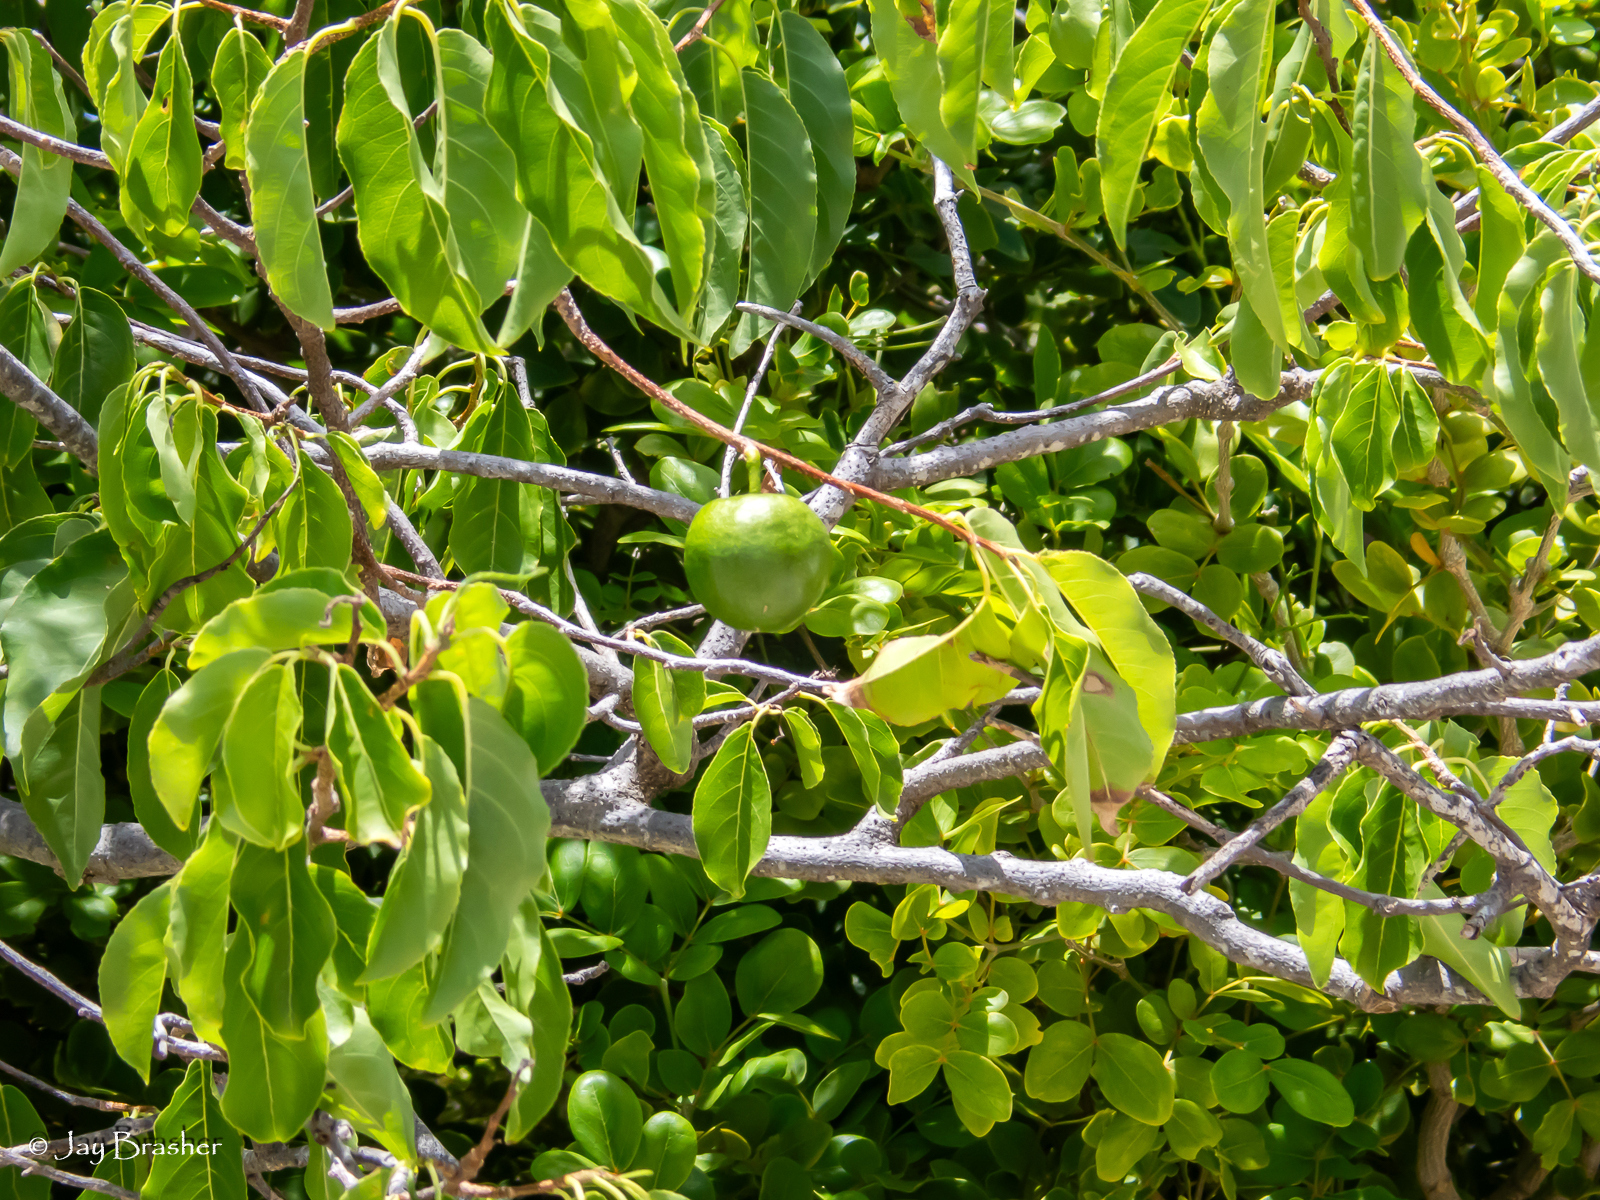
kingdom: Plantae
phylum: Tracheophyta
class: Magnoliopsida
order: Malpighiales
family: Salicaceae
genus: Casearia
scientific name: Casearia tremula
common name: Jumbie guava
